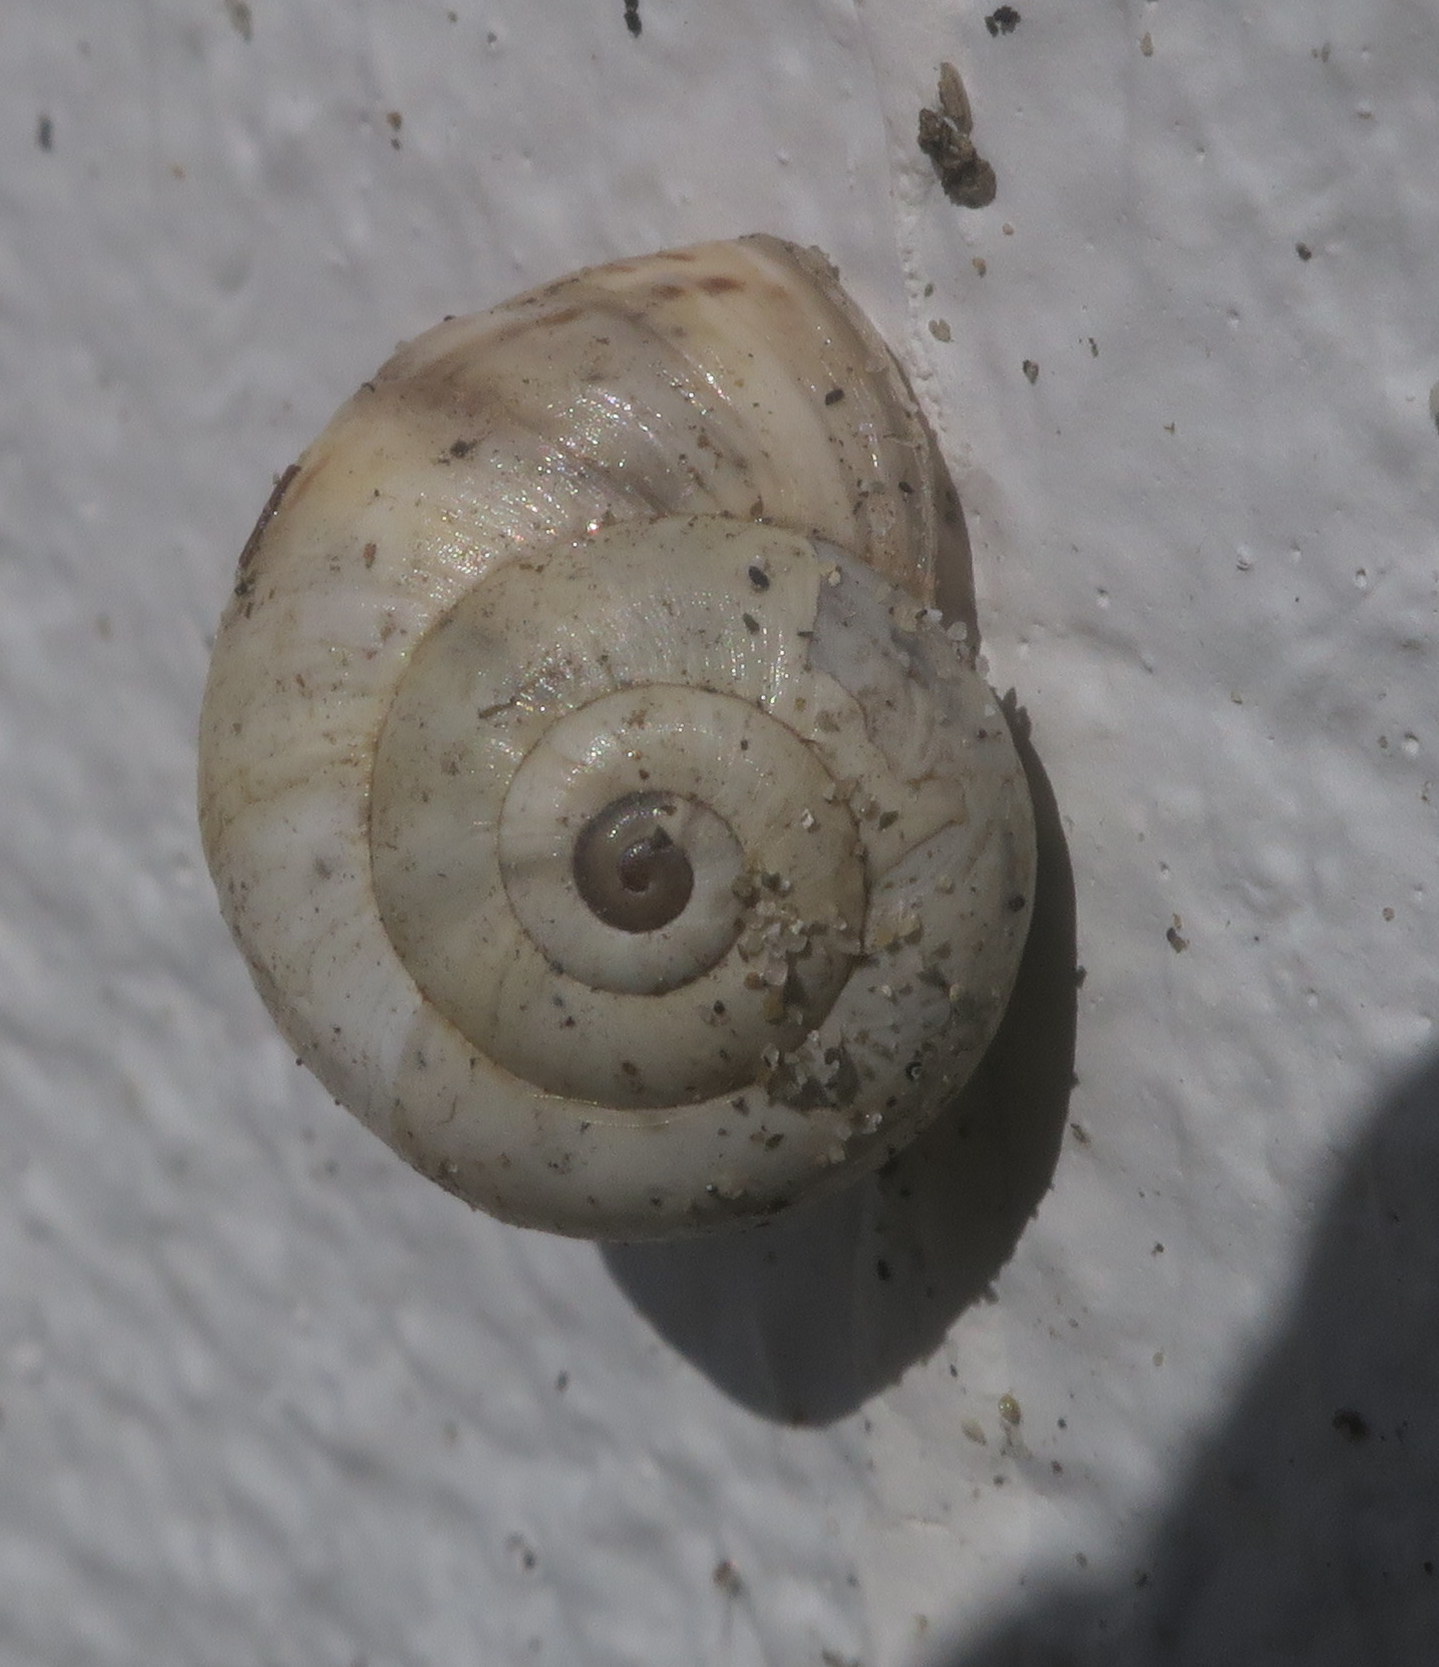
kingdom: Animalia
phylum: Mollusca
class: Gastropoda
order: Stylommatophora
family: Helicidae
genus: Theba
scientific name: Theba pisana
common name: White snail
